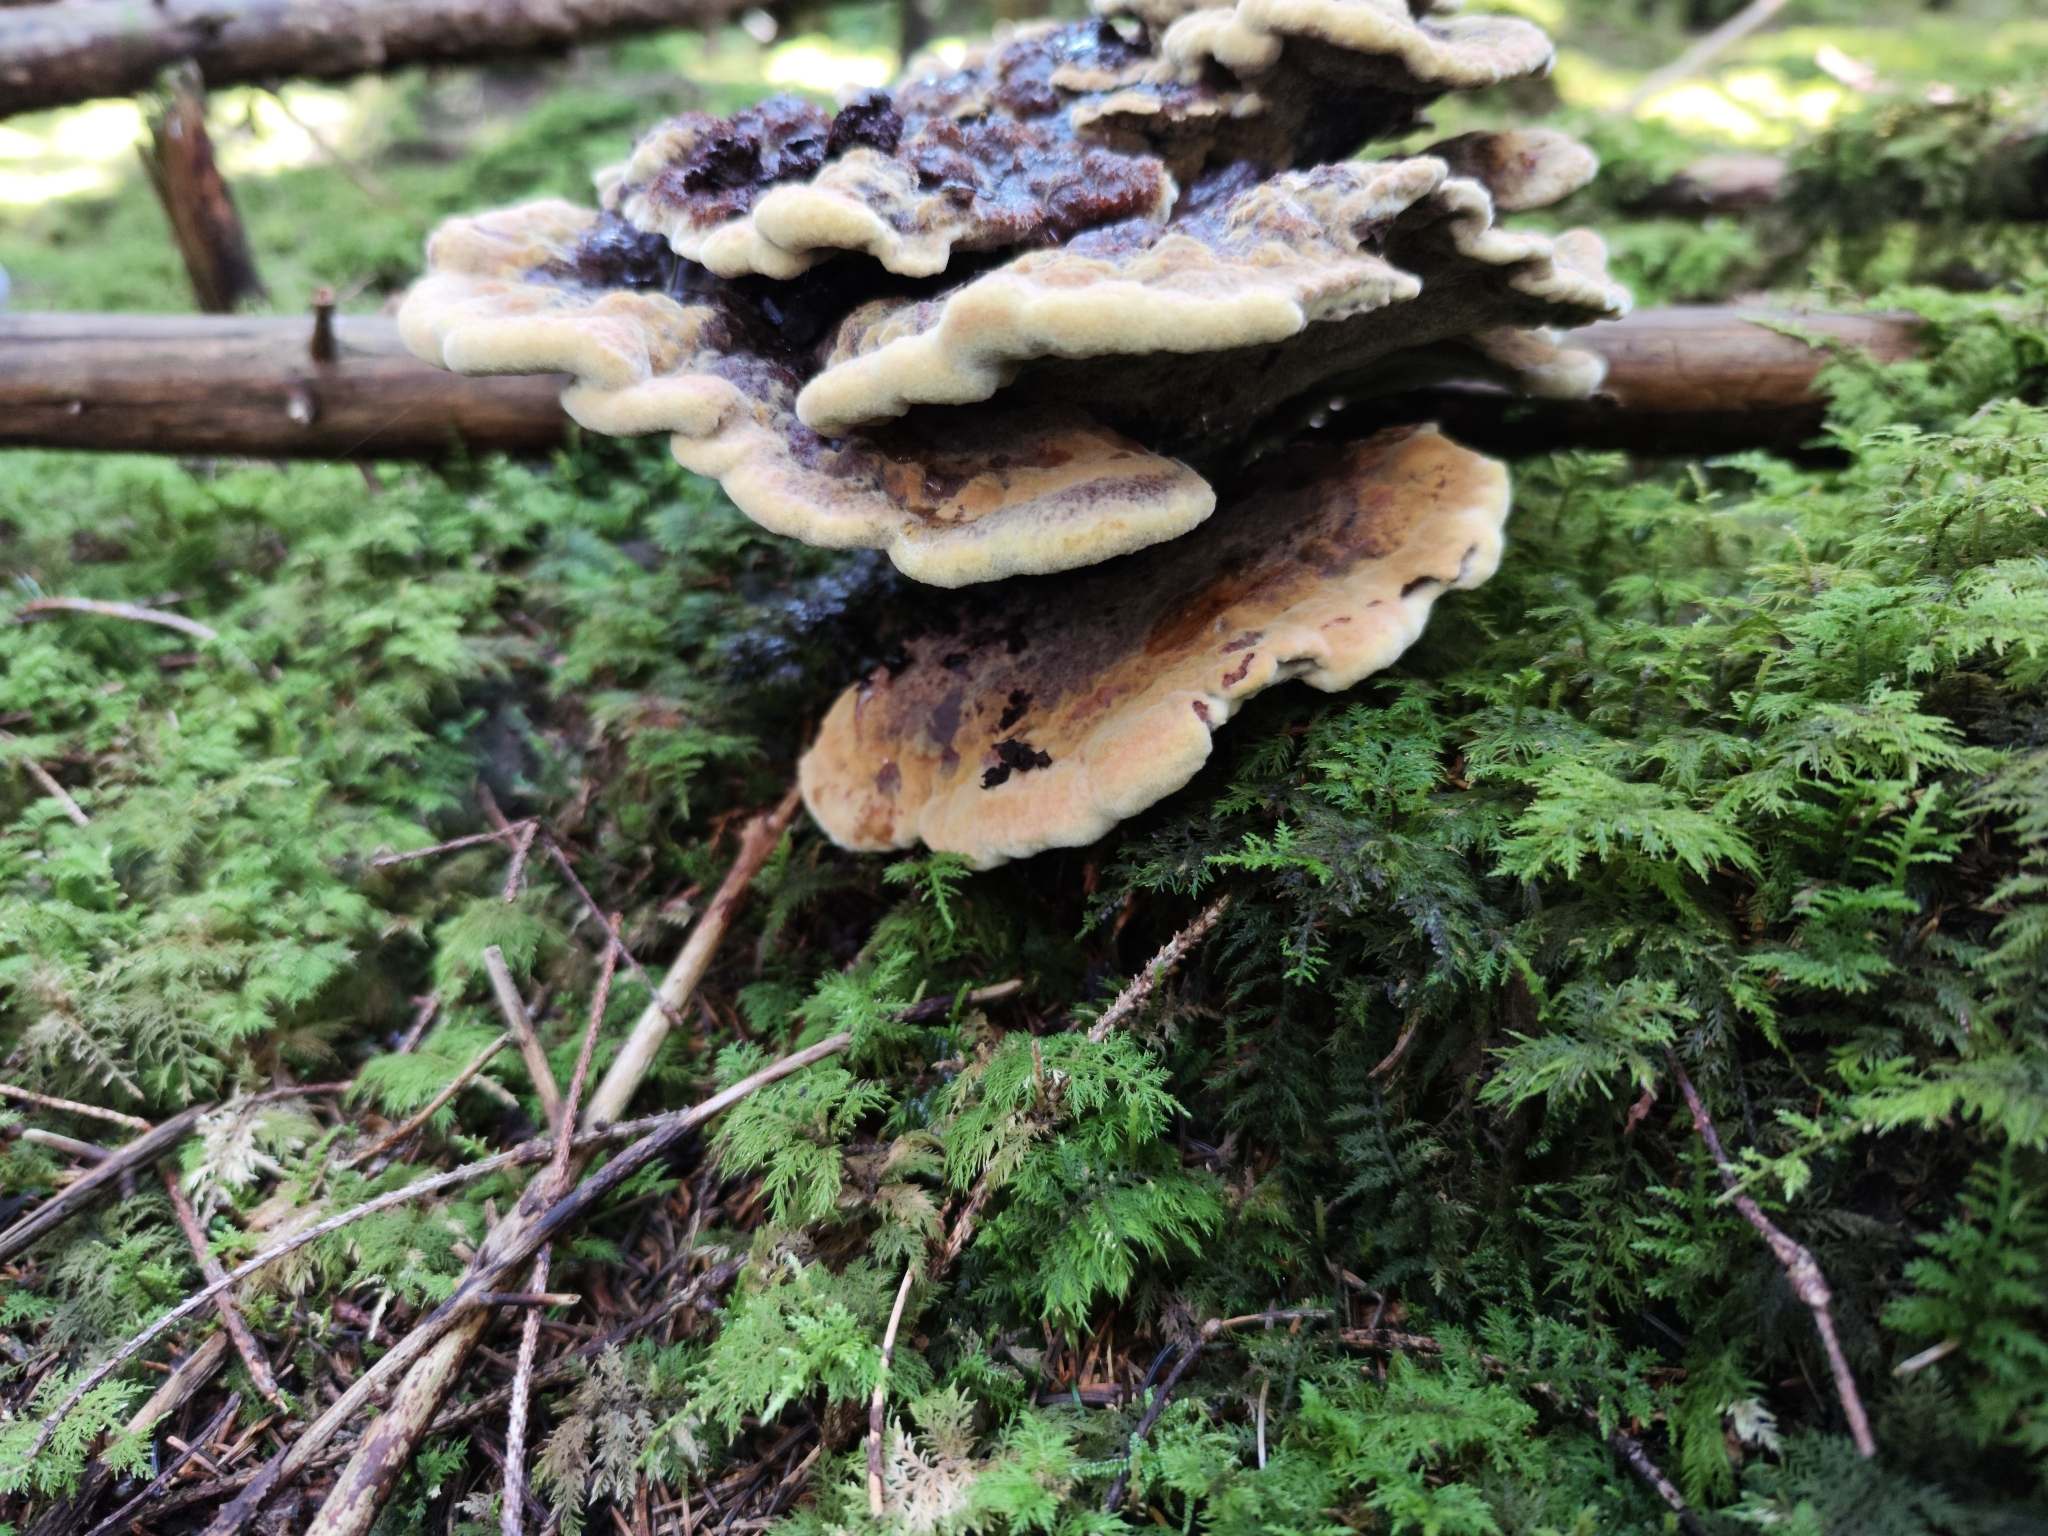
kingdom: Fungi
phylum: Basidiomycota
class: Agaricomycetes
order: Polyporales
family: Laetiporaceae
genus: Phaeolus
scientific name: Phaeolus schweinitzii
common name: Dyer's mazegill
